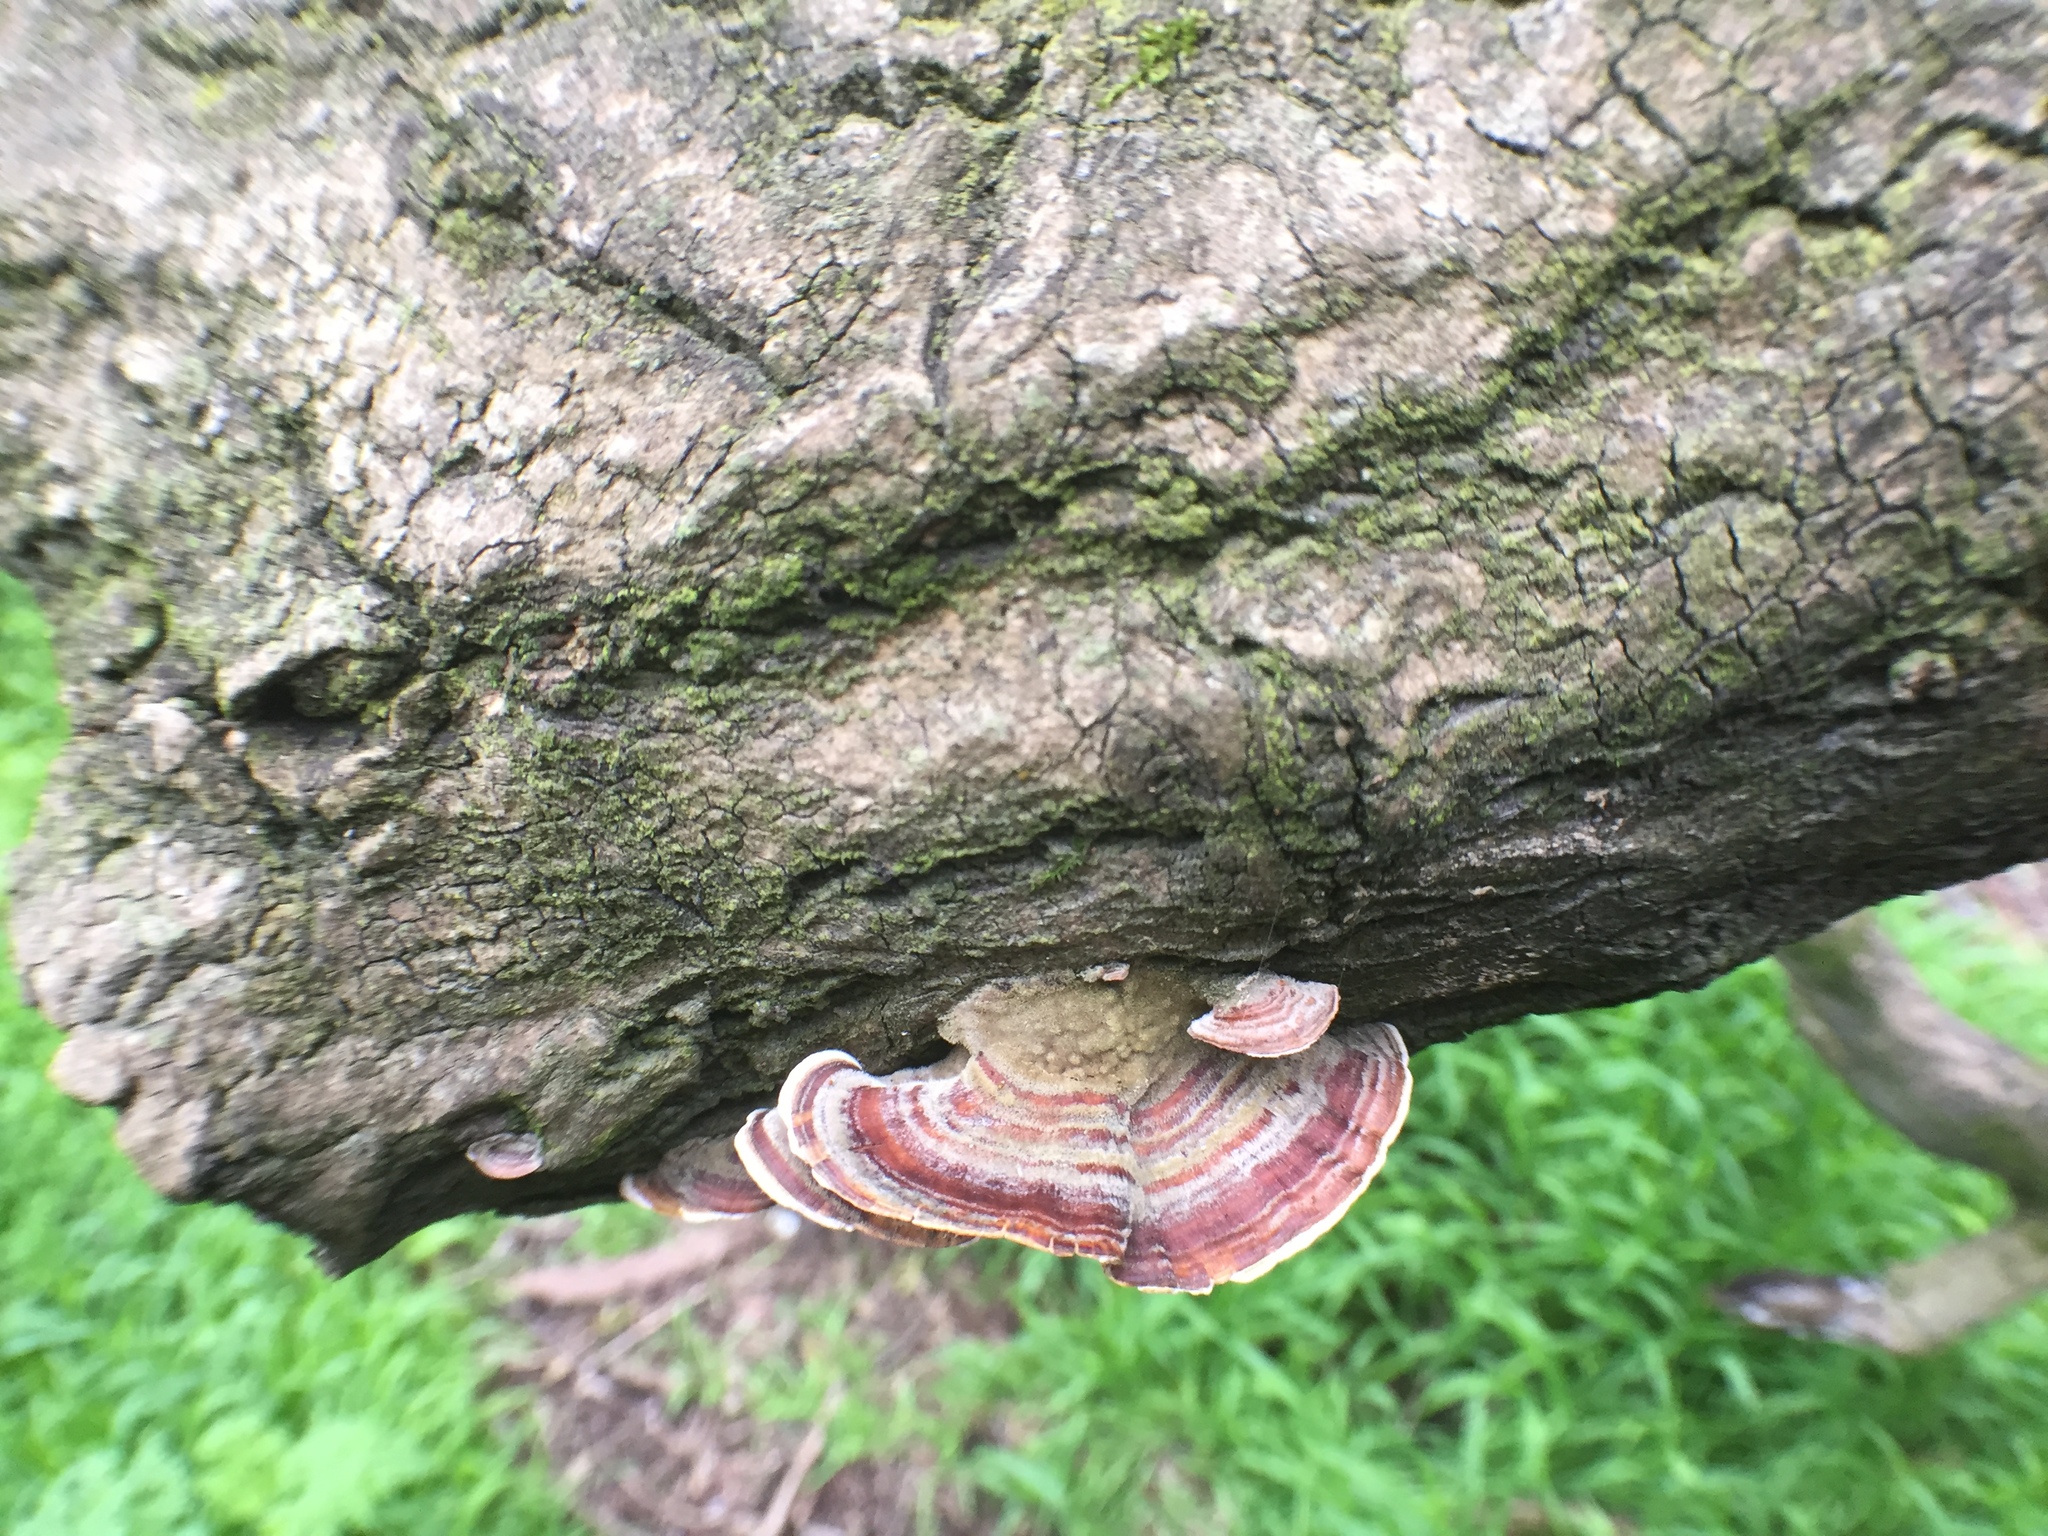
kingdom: Fungi
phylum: Basidiomycota
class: Agaricomycetes
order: Polyporales
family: Polyporaceae
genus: Trametes
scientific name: Trametes versicolor
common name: Turkeytail
